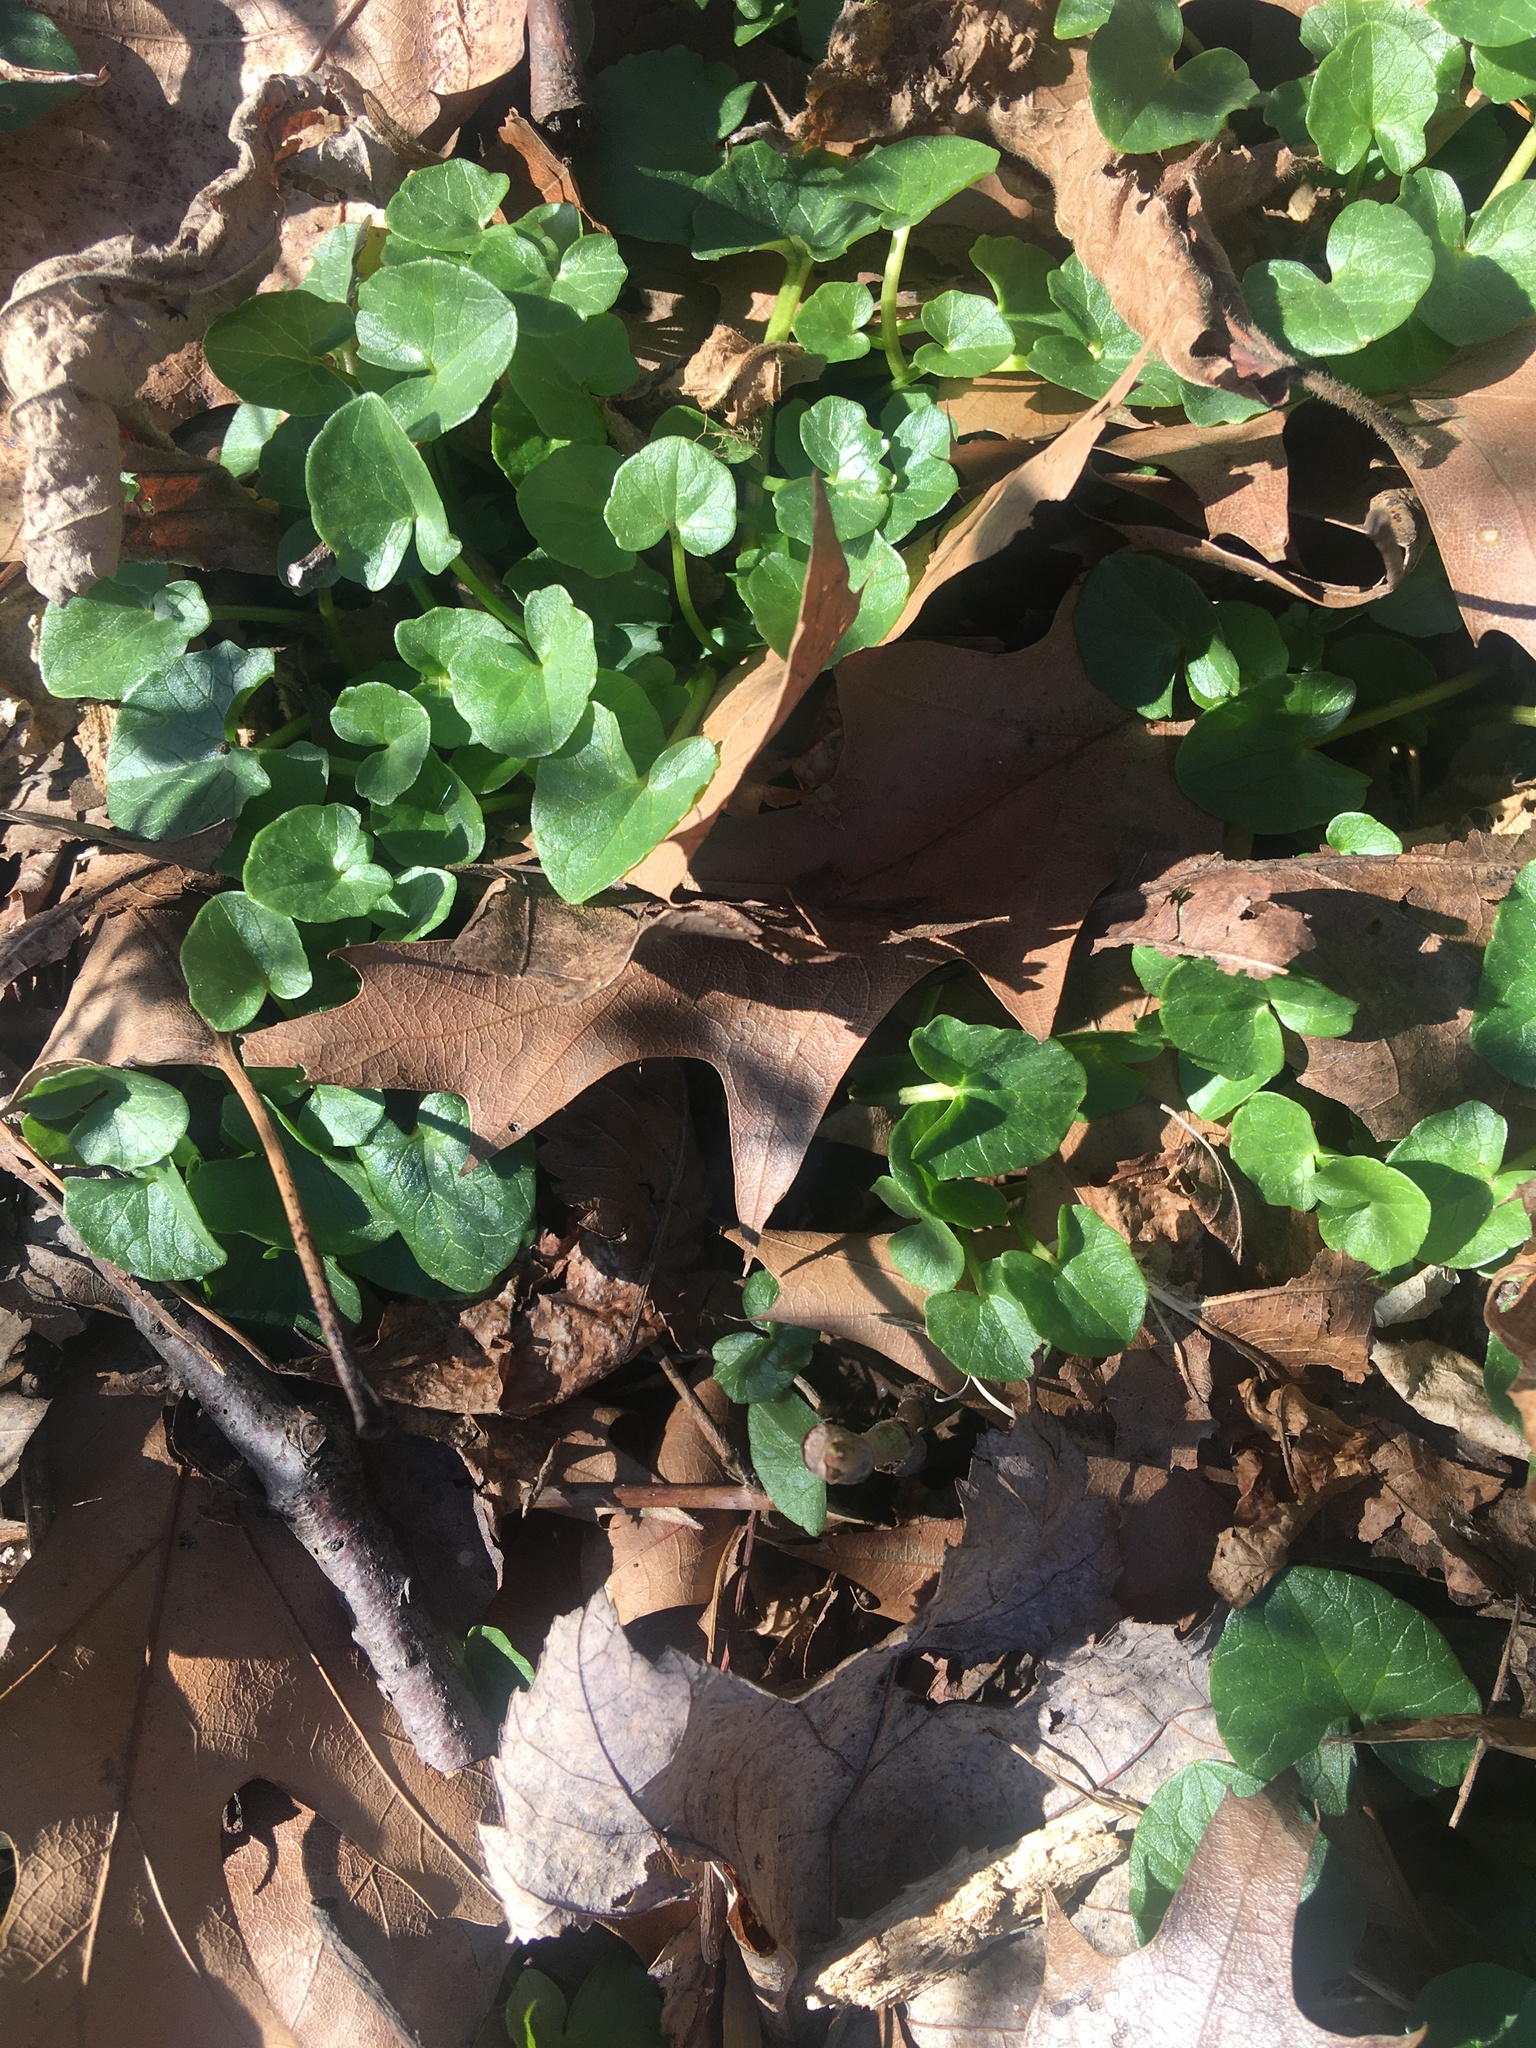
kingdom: Plantae
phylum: Tracheophyta
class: Magnoliopsida
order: Ranunculales
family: Ranunculaceae
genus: Ficaria
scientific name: Ficaria verna
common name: Lesser celandine
